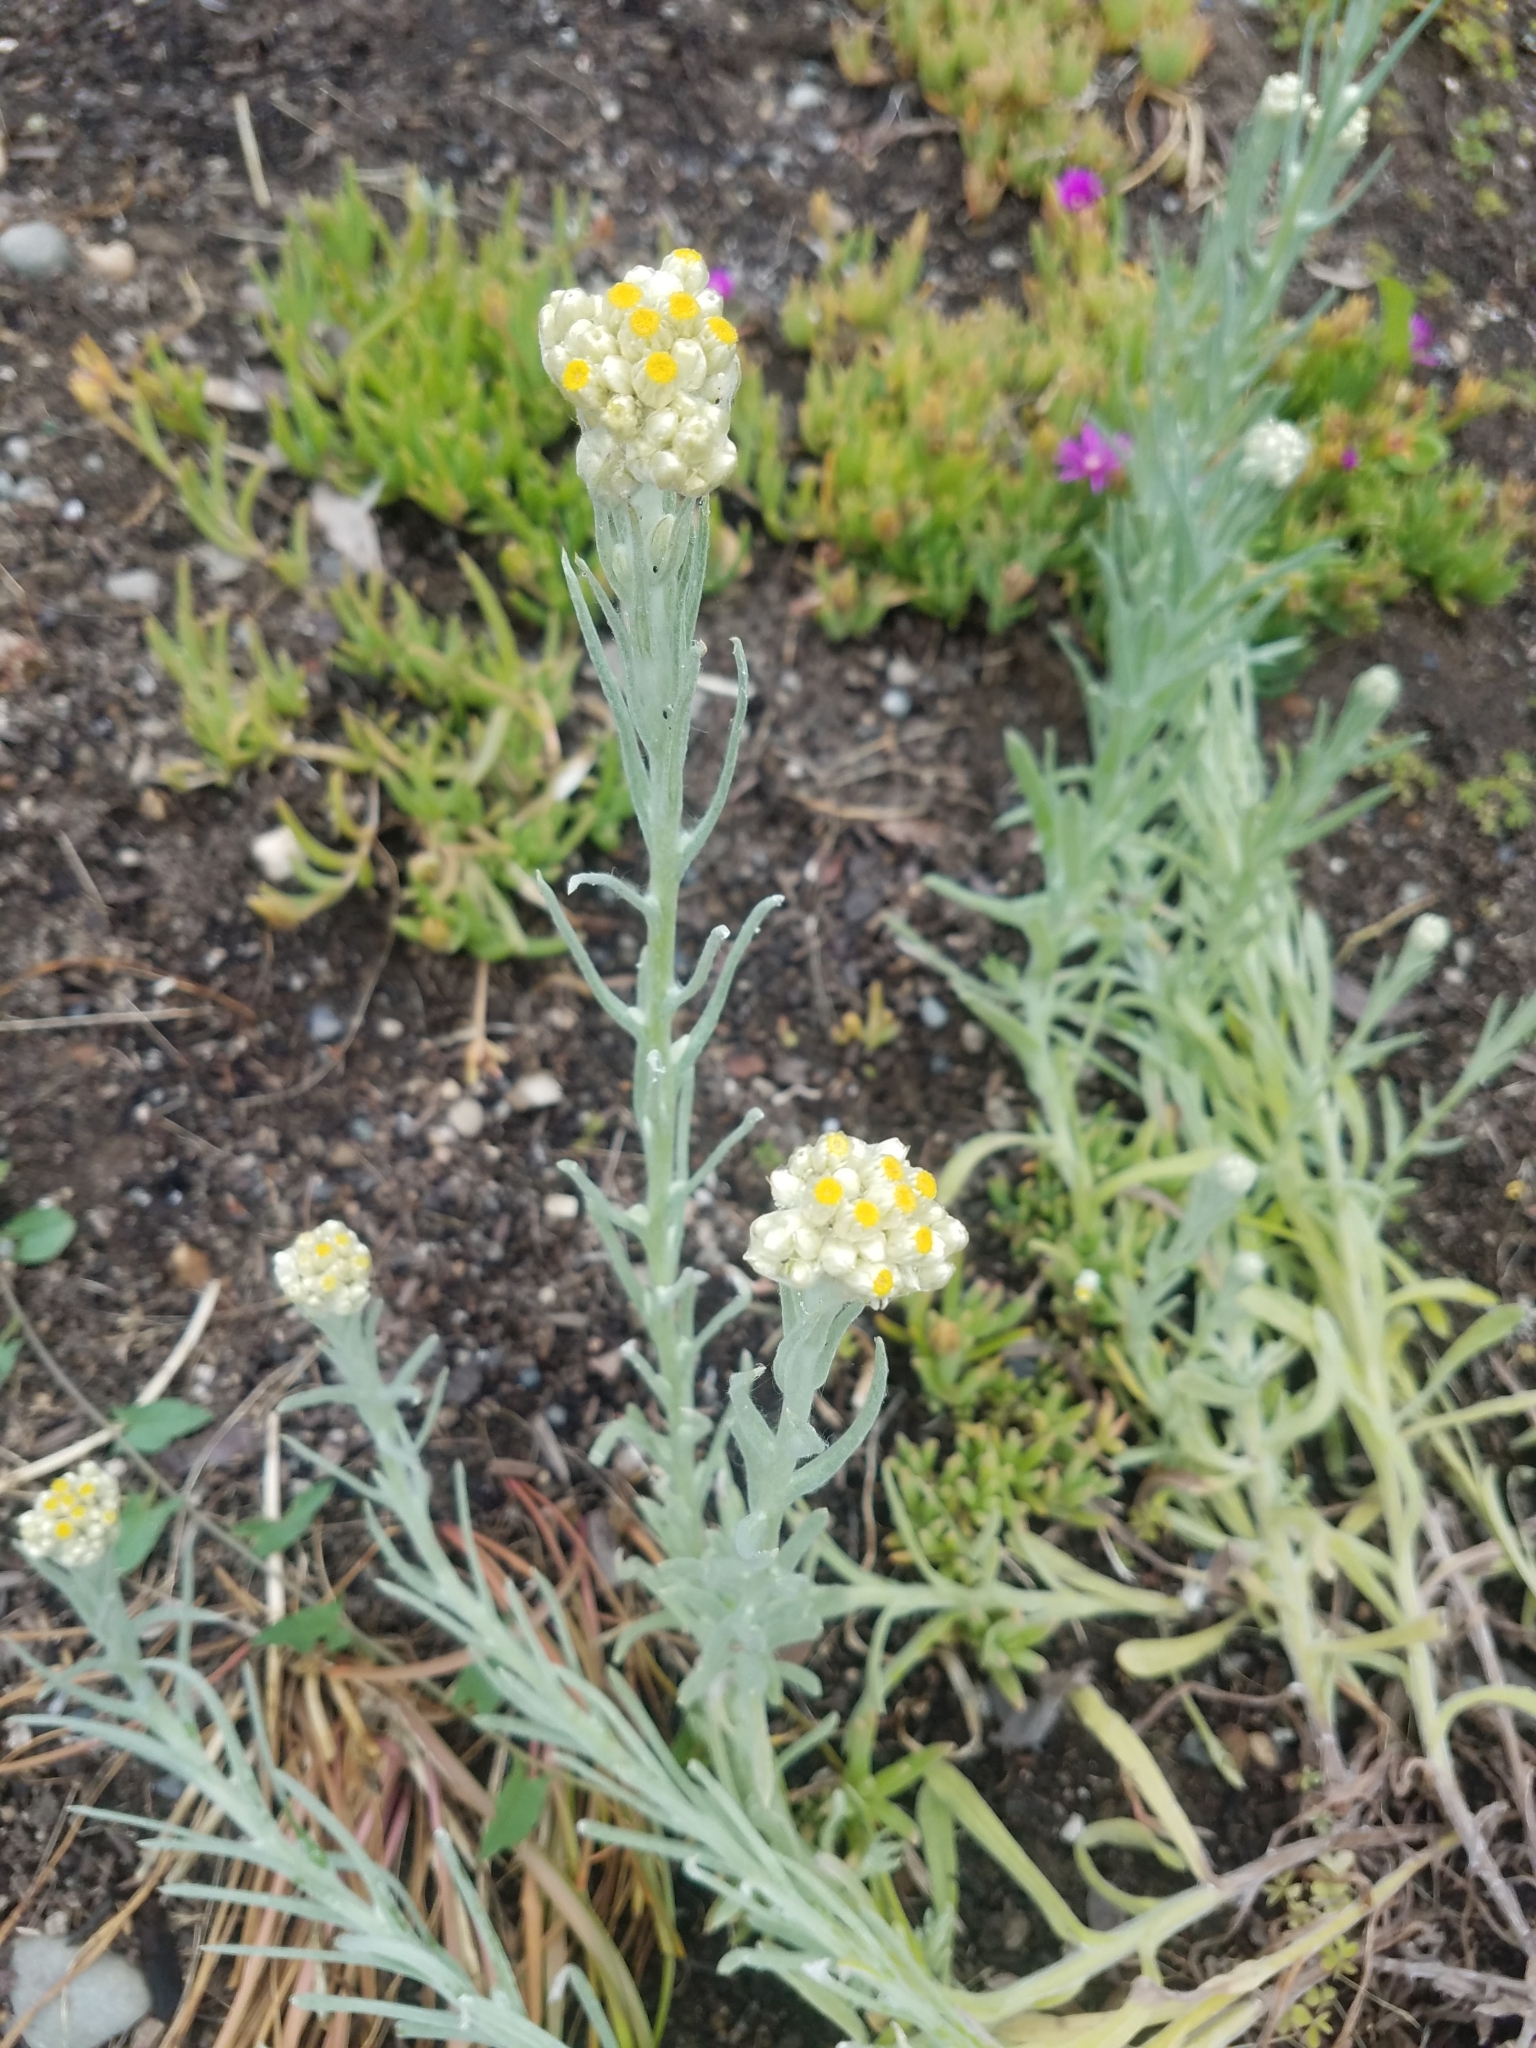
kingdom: Plantae
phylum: Tracheophyta
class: Magnoliopsida
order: Asterales
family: Asteraceae
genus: Pseudognaphalium
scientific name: Pseudognaphalium stramineum
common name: Cotton-batting-plant
